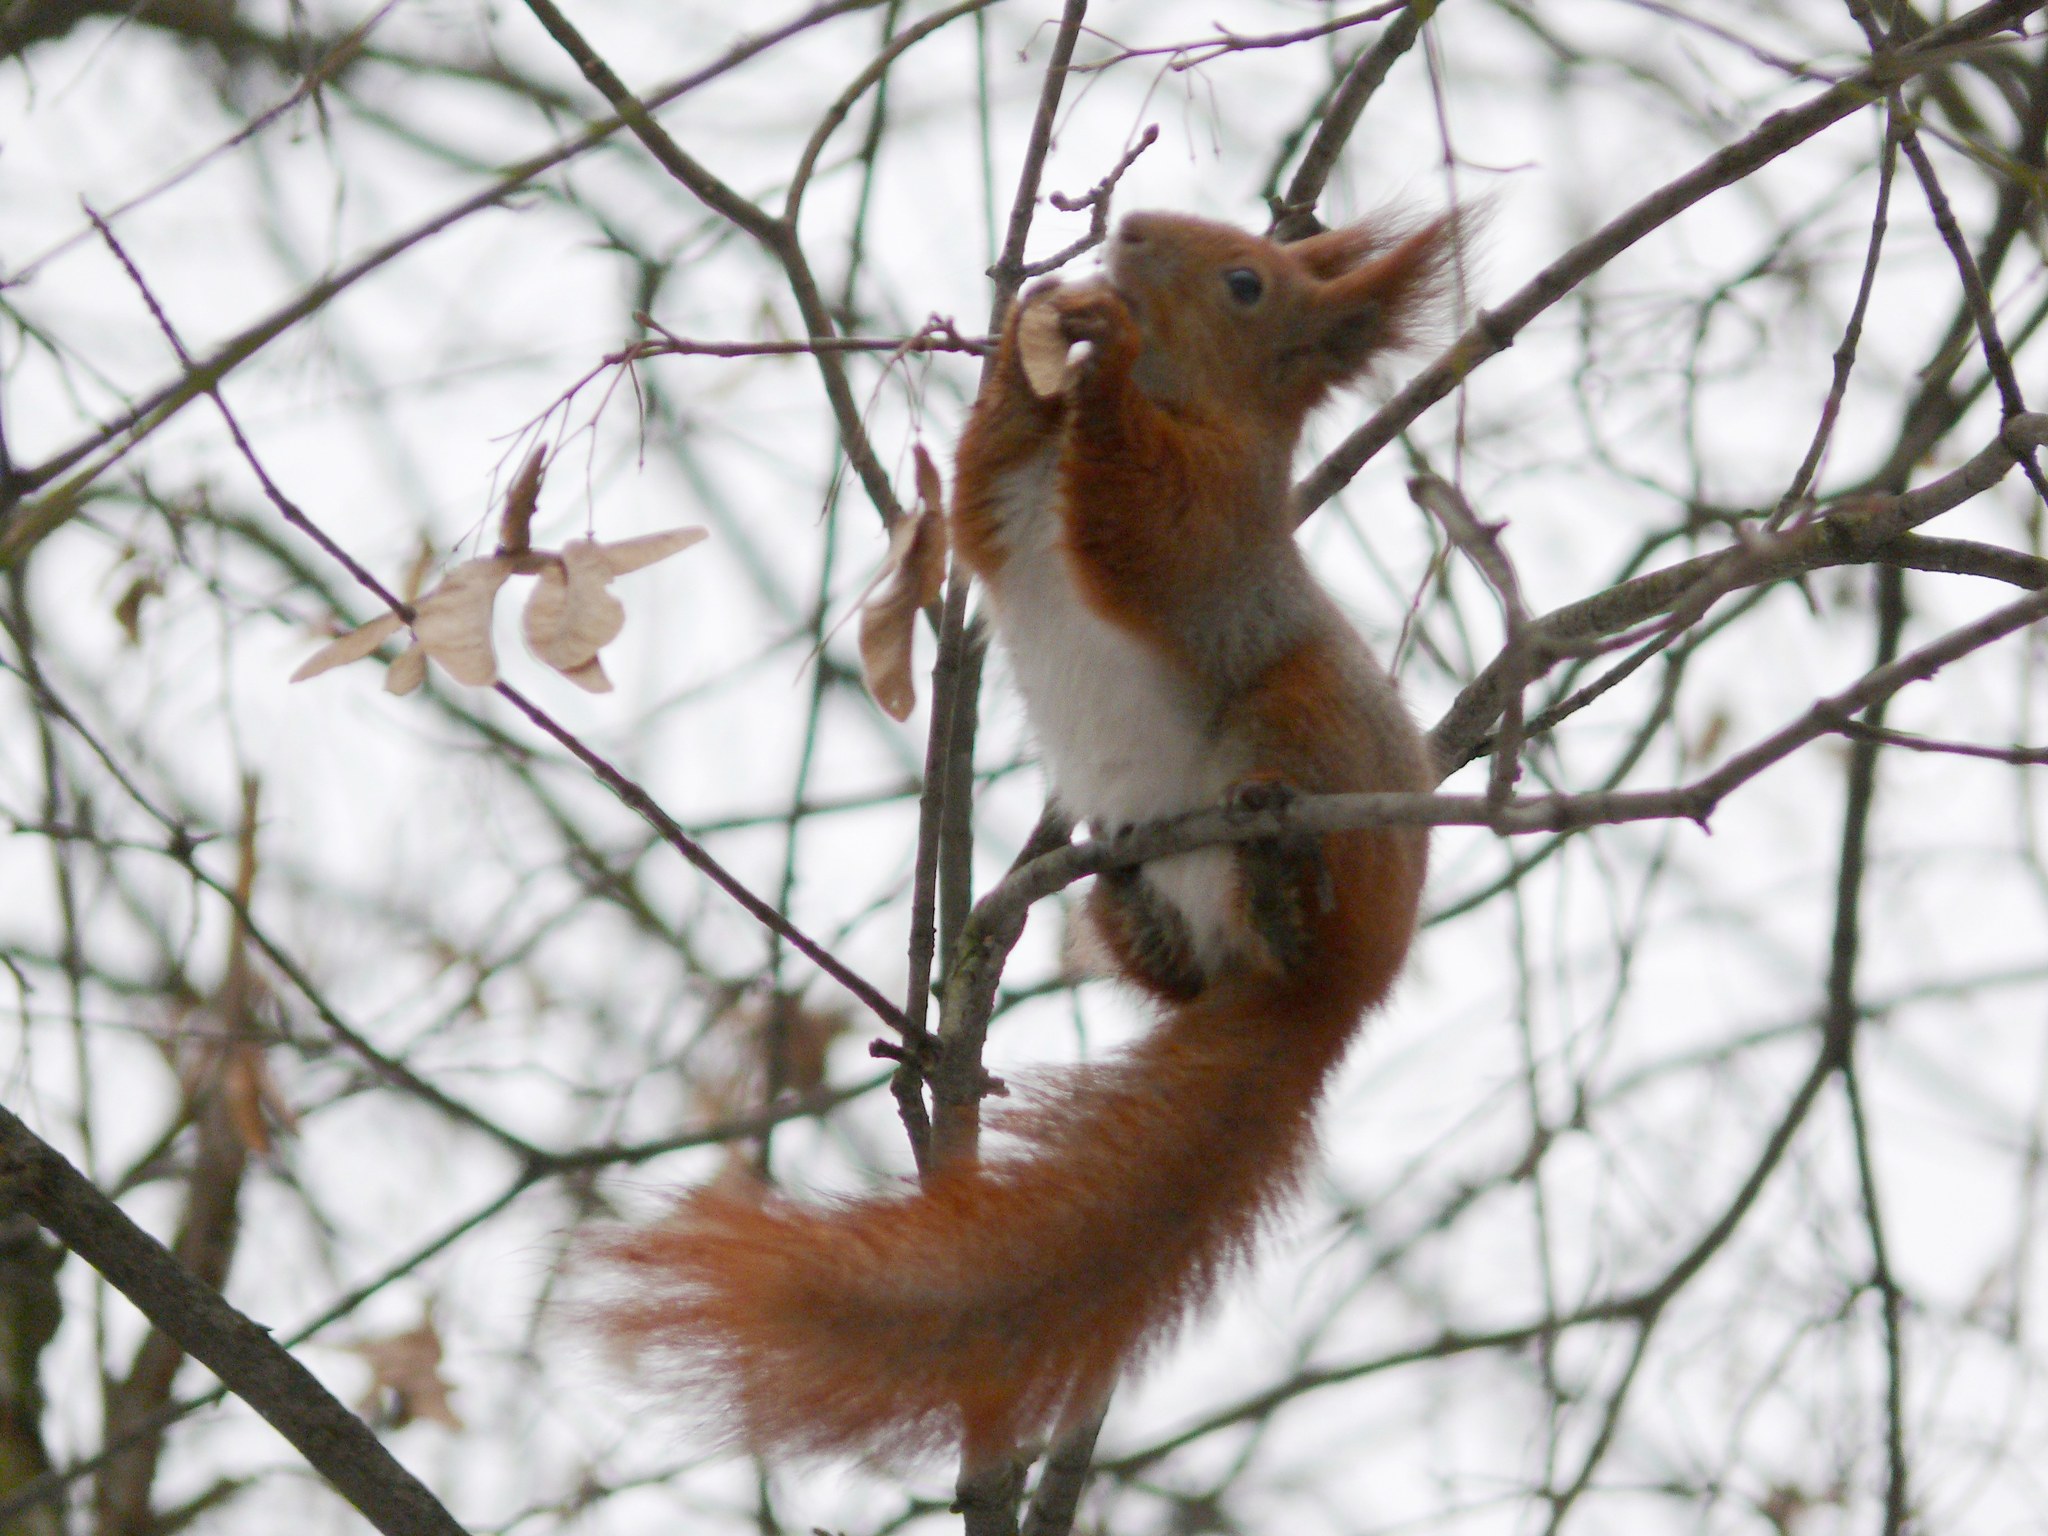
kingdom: Animalia
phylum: Chordata
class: Mammalia
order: Rodentia
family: Sciuridae
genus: Sciurus
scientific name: Sciurus vulgaris
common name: Eurasian red squirrel
